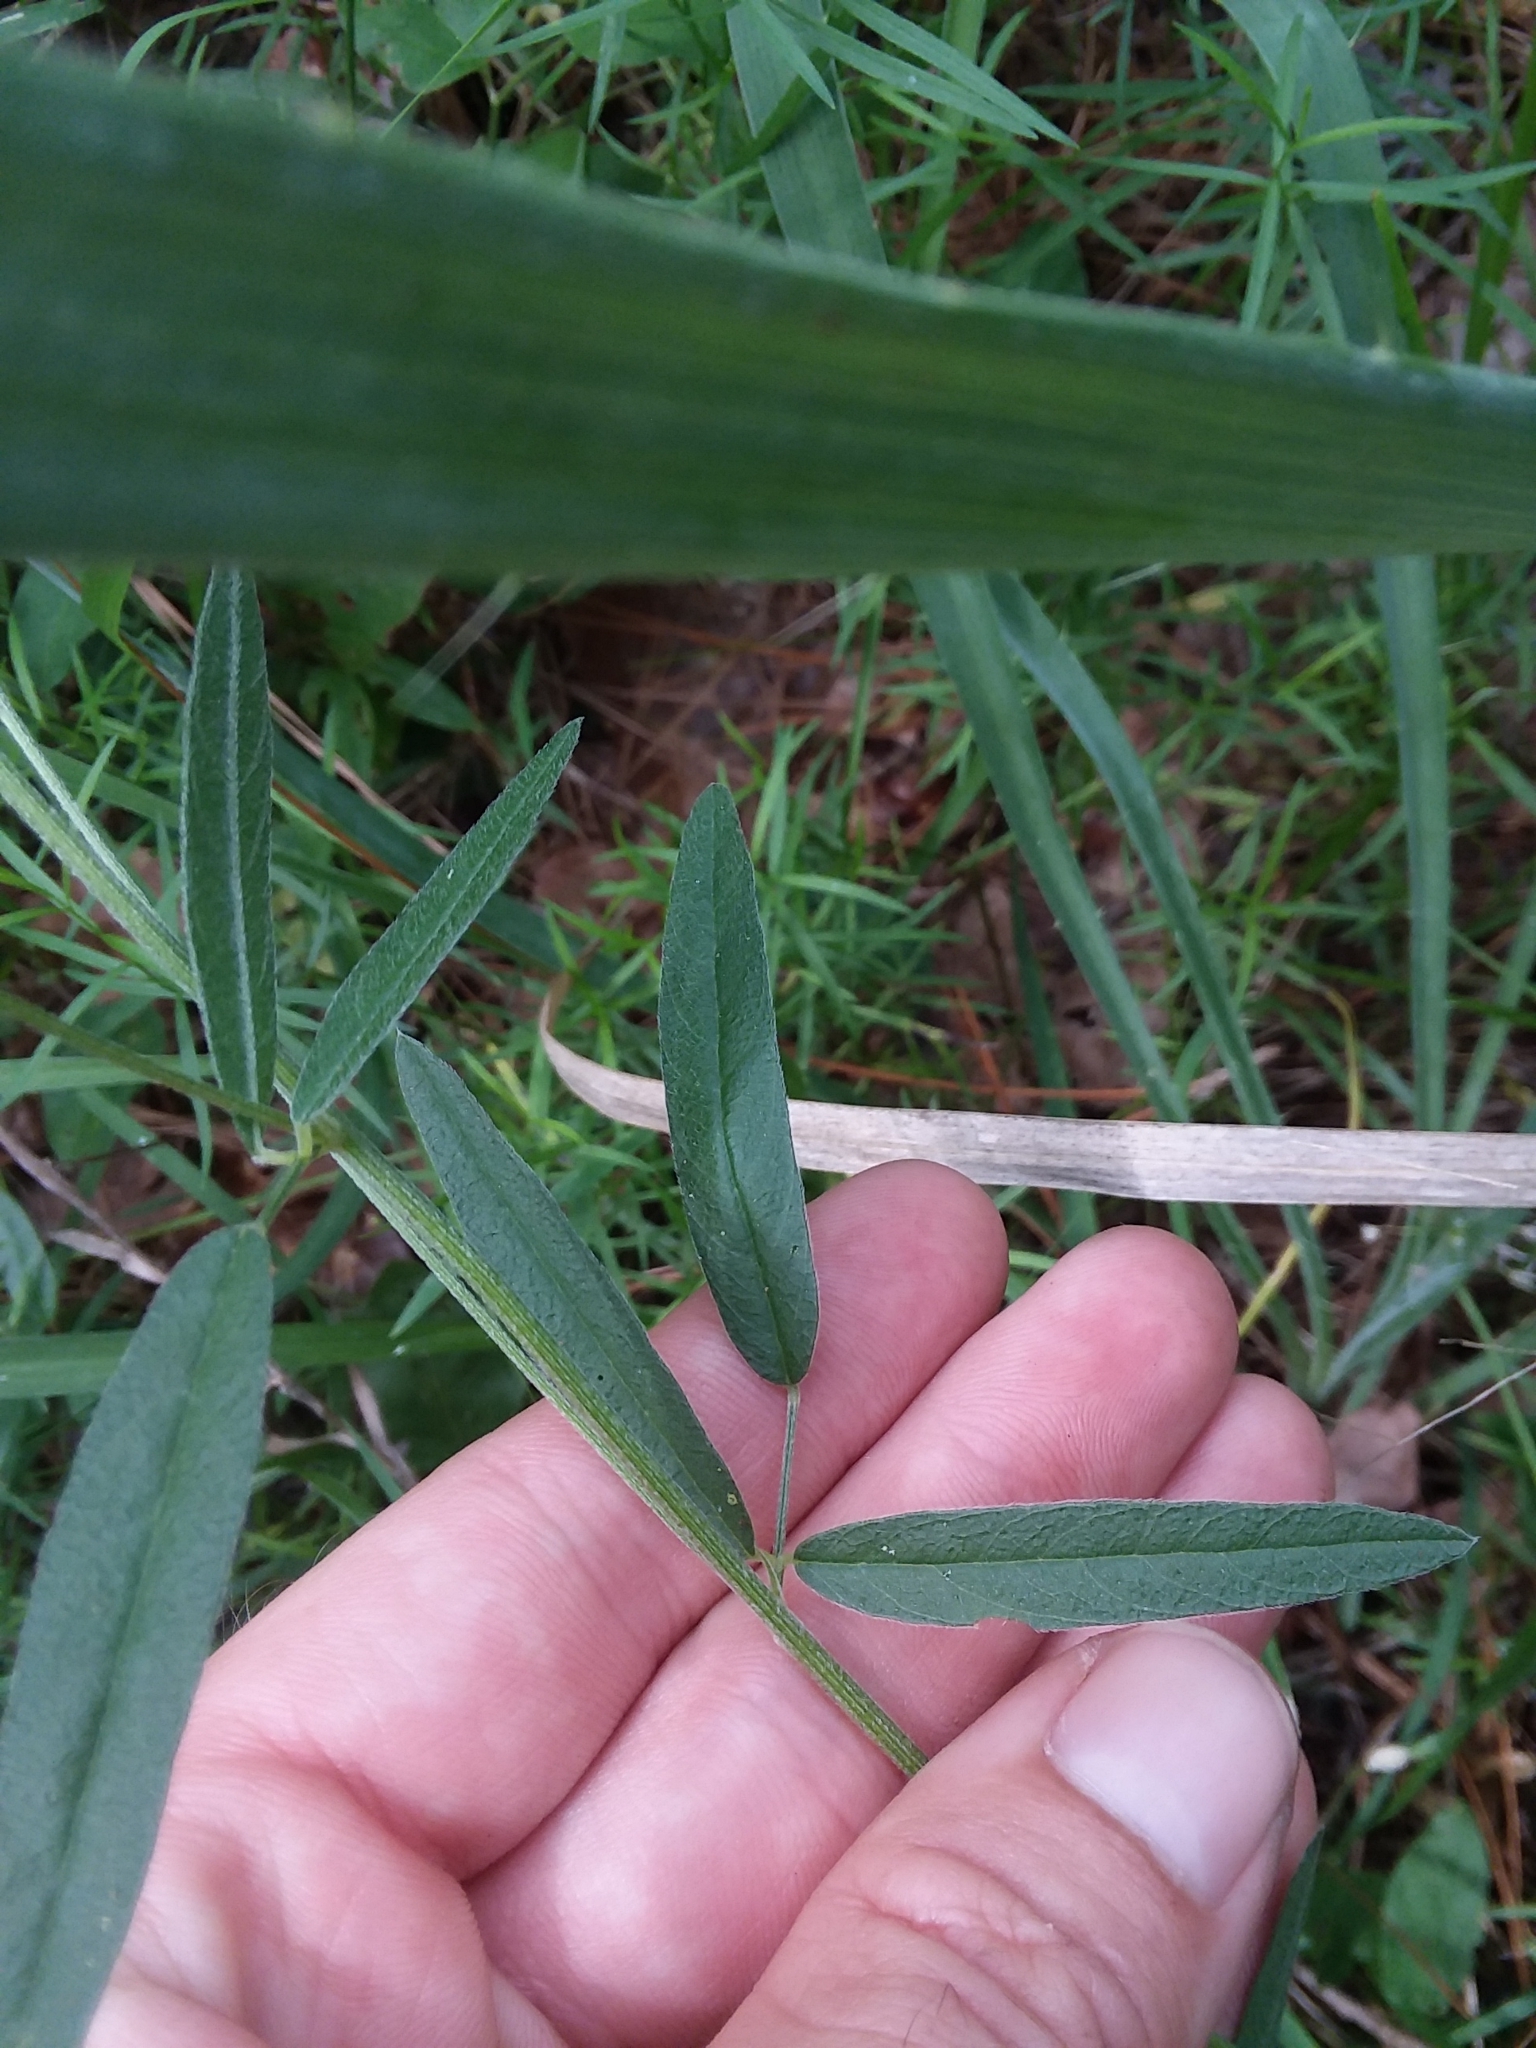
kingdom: Plantae
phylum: Tracheophyta
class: Magnoliopsida
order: Fabales
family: Fabaceae
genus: Orbexilum
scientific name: Orbexilum simplex
